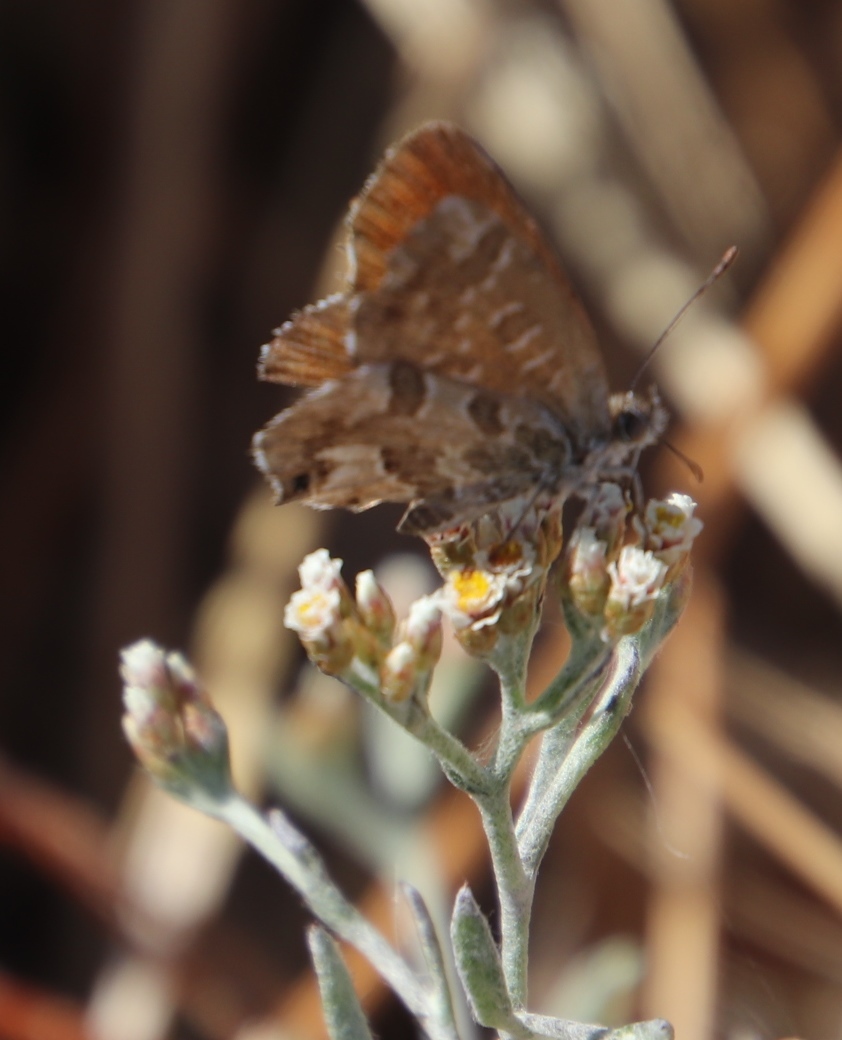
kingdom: Plantae
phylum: Tracheophyta
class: Magnoliopsida
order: Asterales
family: Asteraceae
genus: Helichrysum
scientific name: Helichrysum indicum
